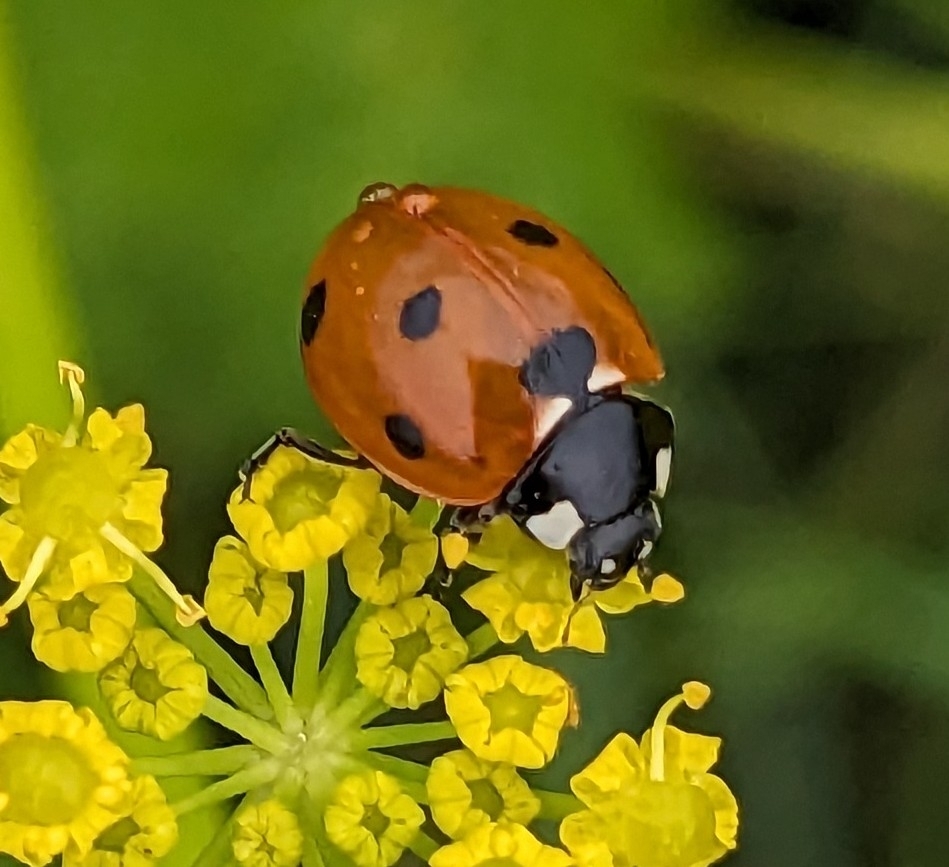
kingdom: Animalia
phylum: Arthropoda
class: Insecta
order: Coleoptera
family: Coccinellidae
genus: Coccinella
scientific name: Coccinella septempunctata
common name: Sevenspotted lady beetle
